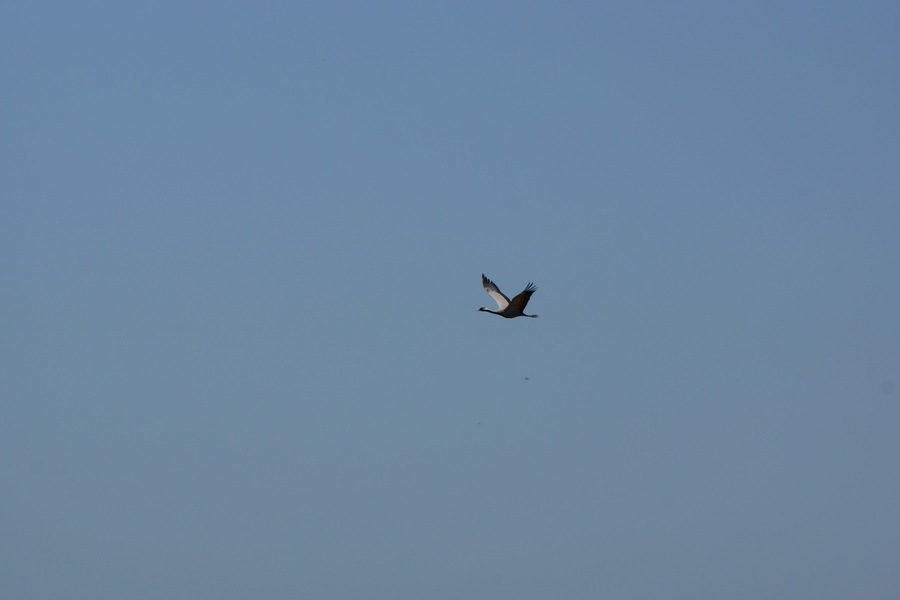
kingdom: Animalia
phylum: Chordata
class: Aves
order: Gruiformes
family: Gruidae
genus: Anthropoides
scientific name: Anthropoides virgo
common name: Demoiselle crane
